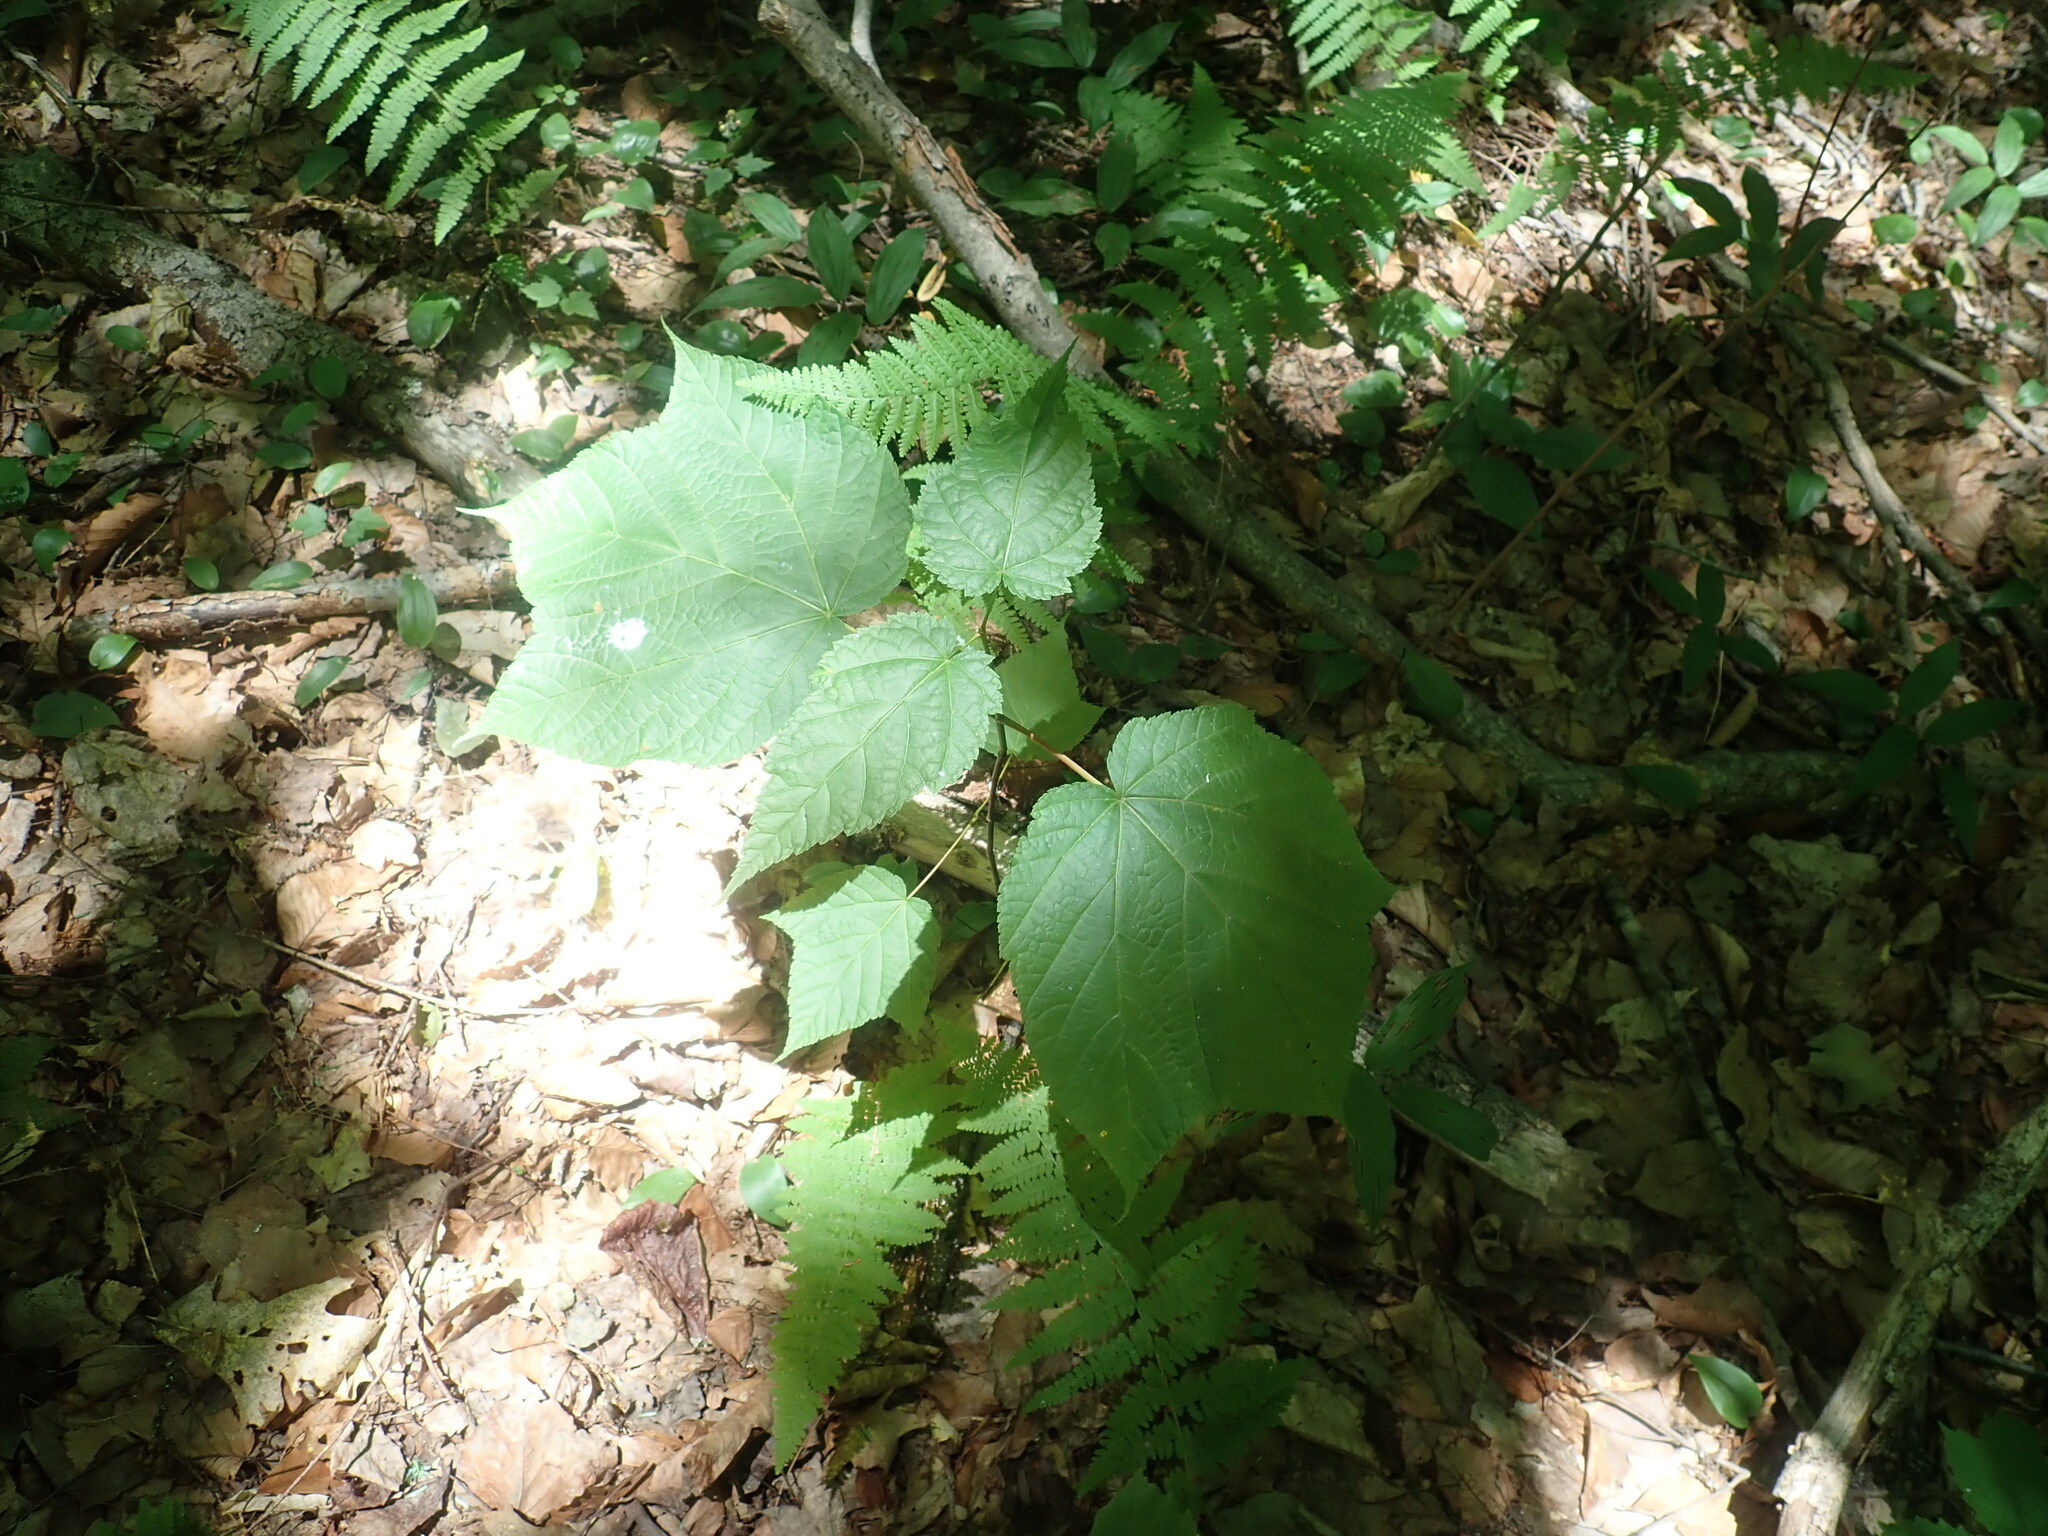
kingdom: Plantae
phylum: Tracheophyta
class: Magnoliopsida
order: Sapindales
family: Sapindaceae
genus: Acer
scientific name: Acer pensylvanicum
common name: Moosewood
